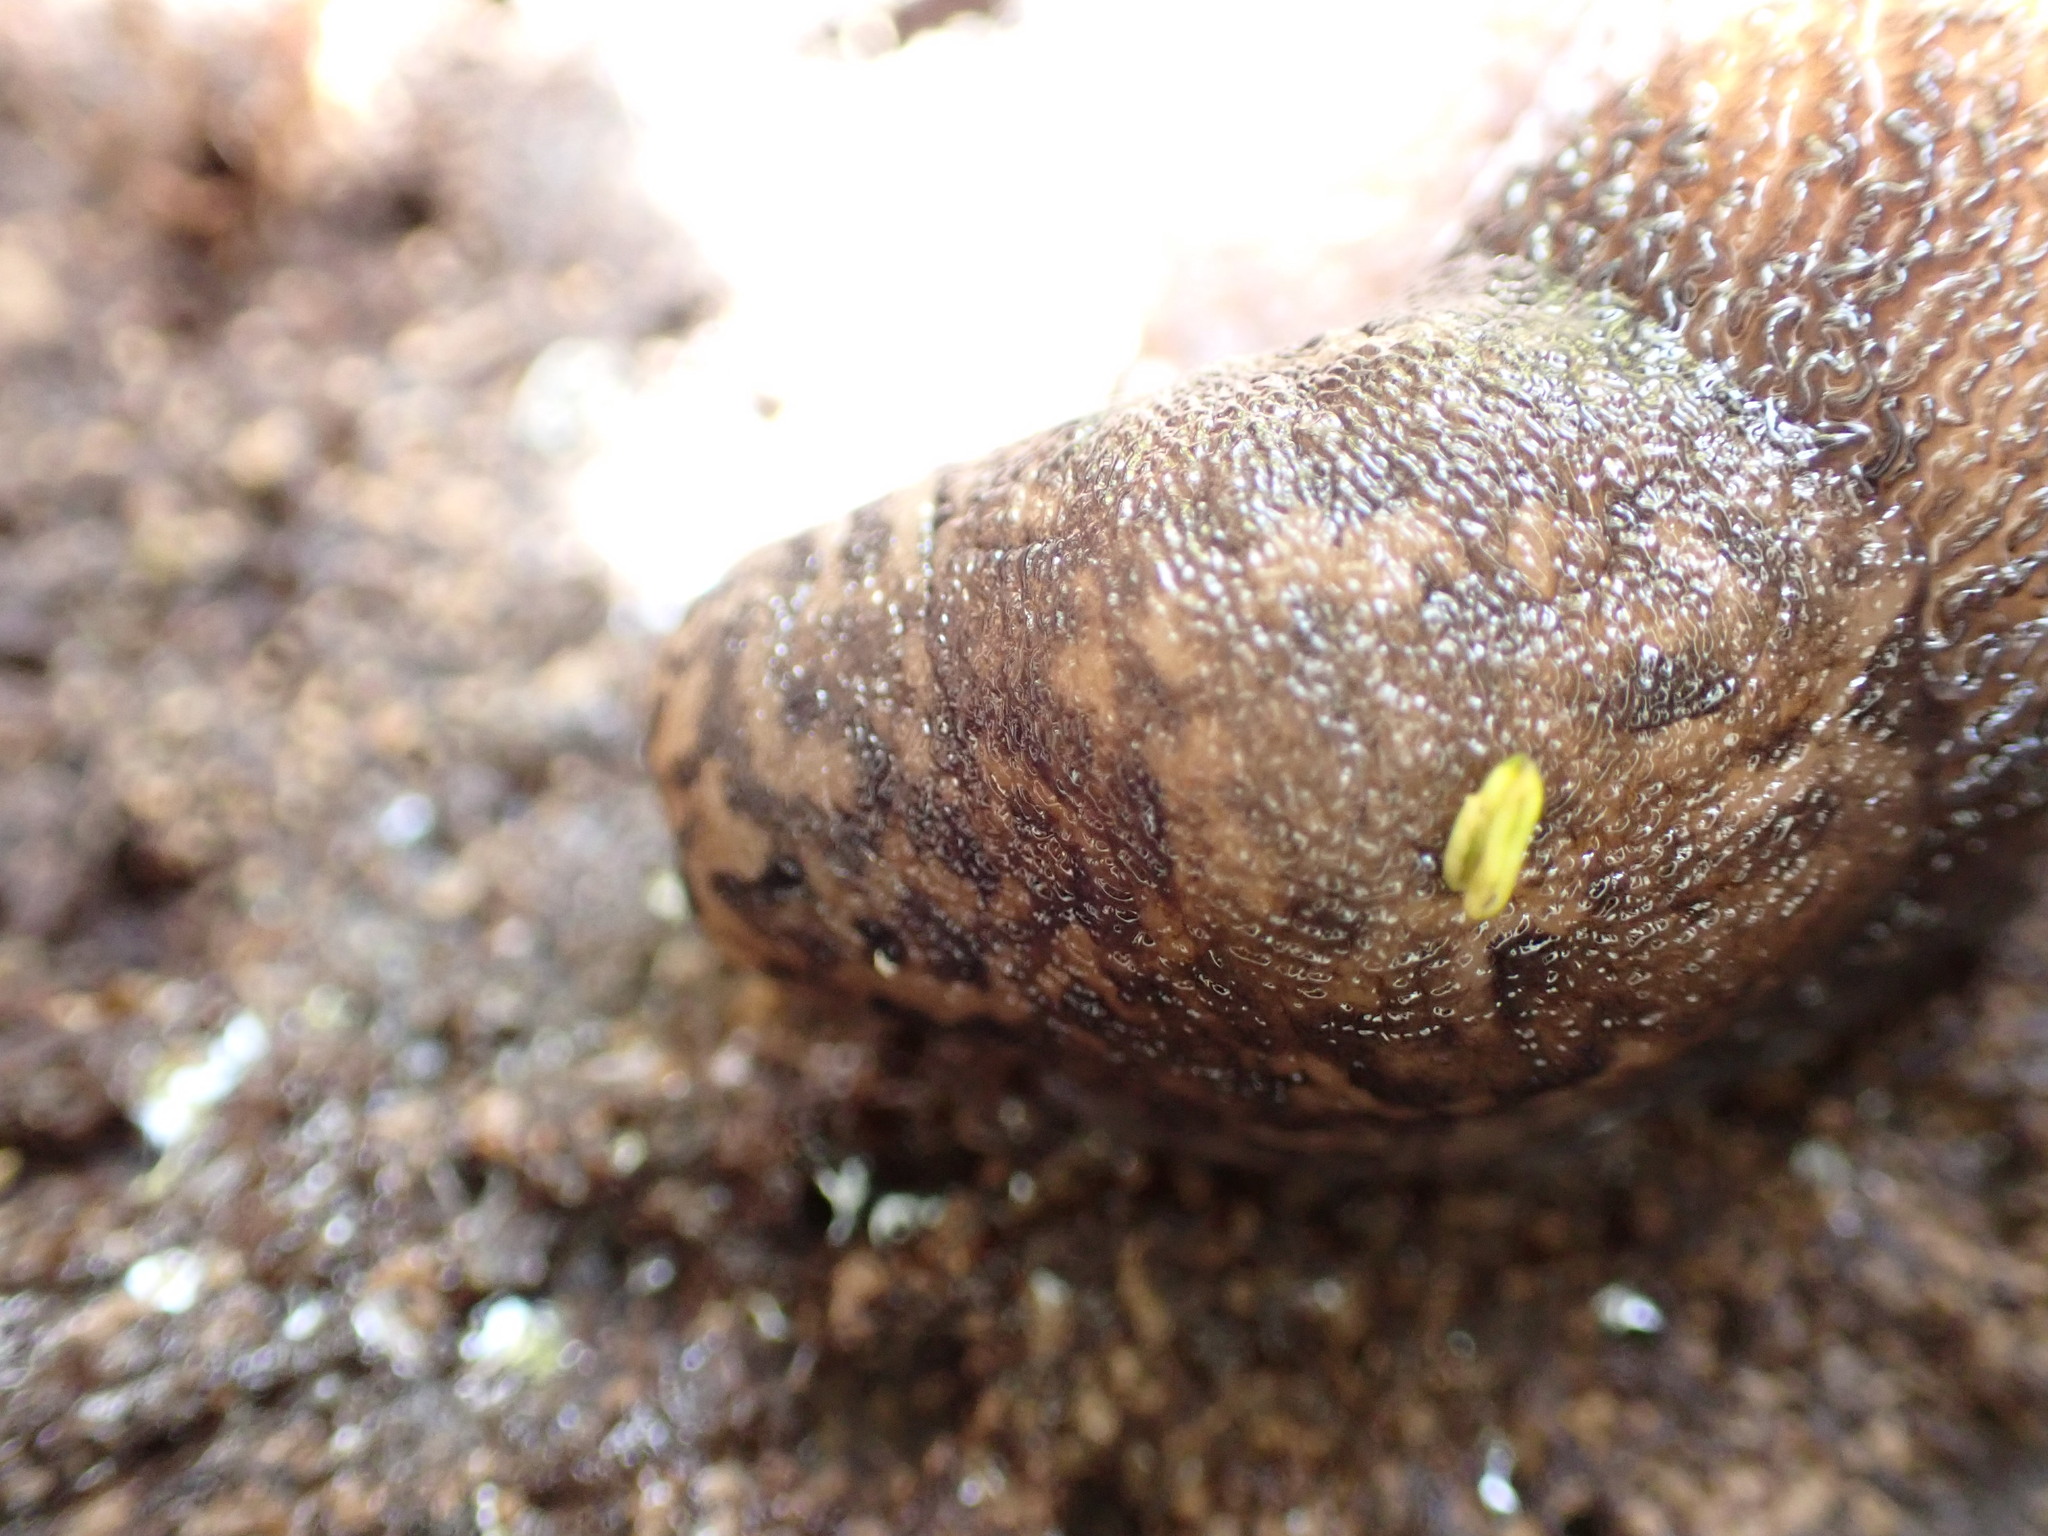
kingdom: Animalia
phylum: Mollusca
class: Gastropoda
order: Stylommatophora
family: Limacidae
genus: Limax
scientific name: Limax maximus
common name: Great grey slug
